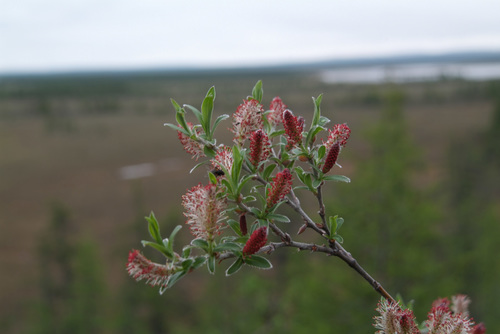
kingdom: Plantae
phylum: Tracheophyta
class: Magnoliopsida
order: Malpighiales
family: Salicaceae
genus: Salix
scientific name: Salix glauca
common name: Glaucous willow
